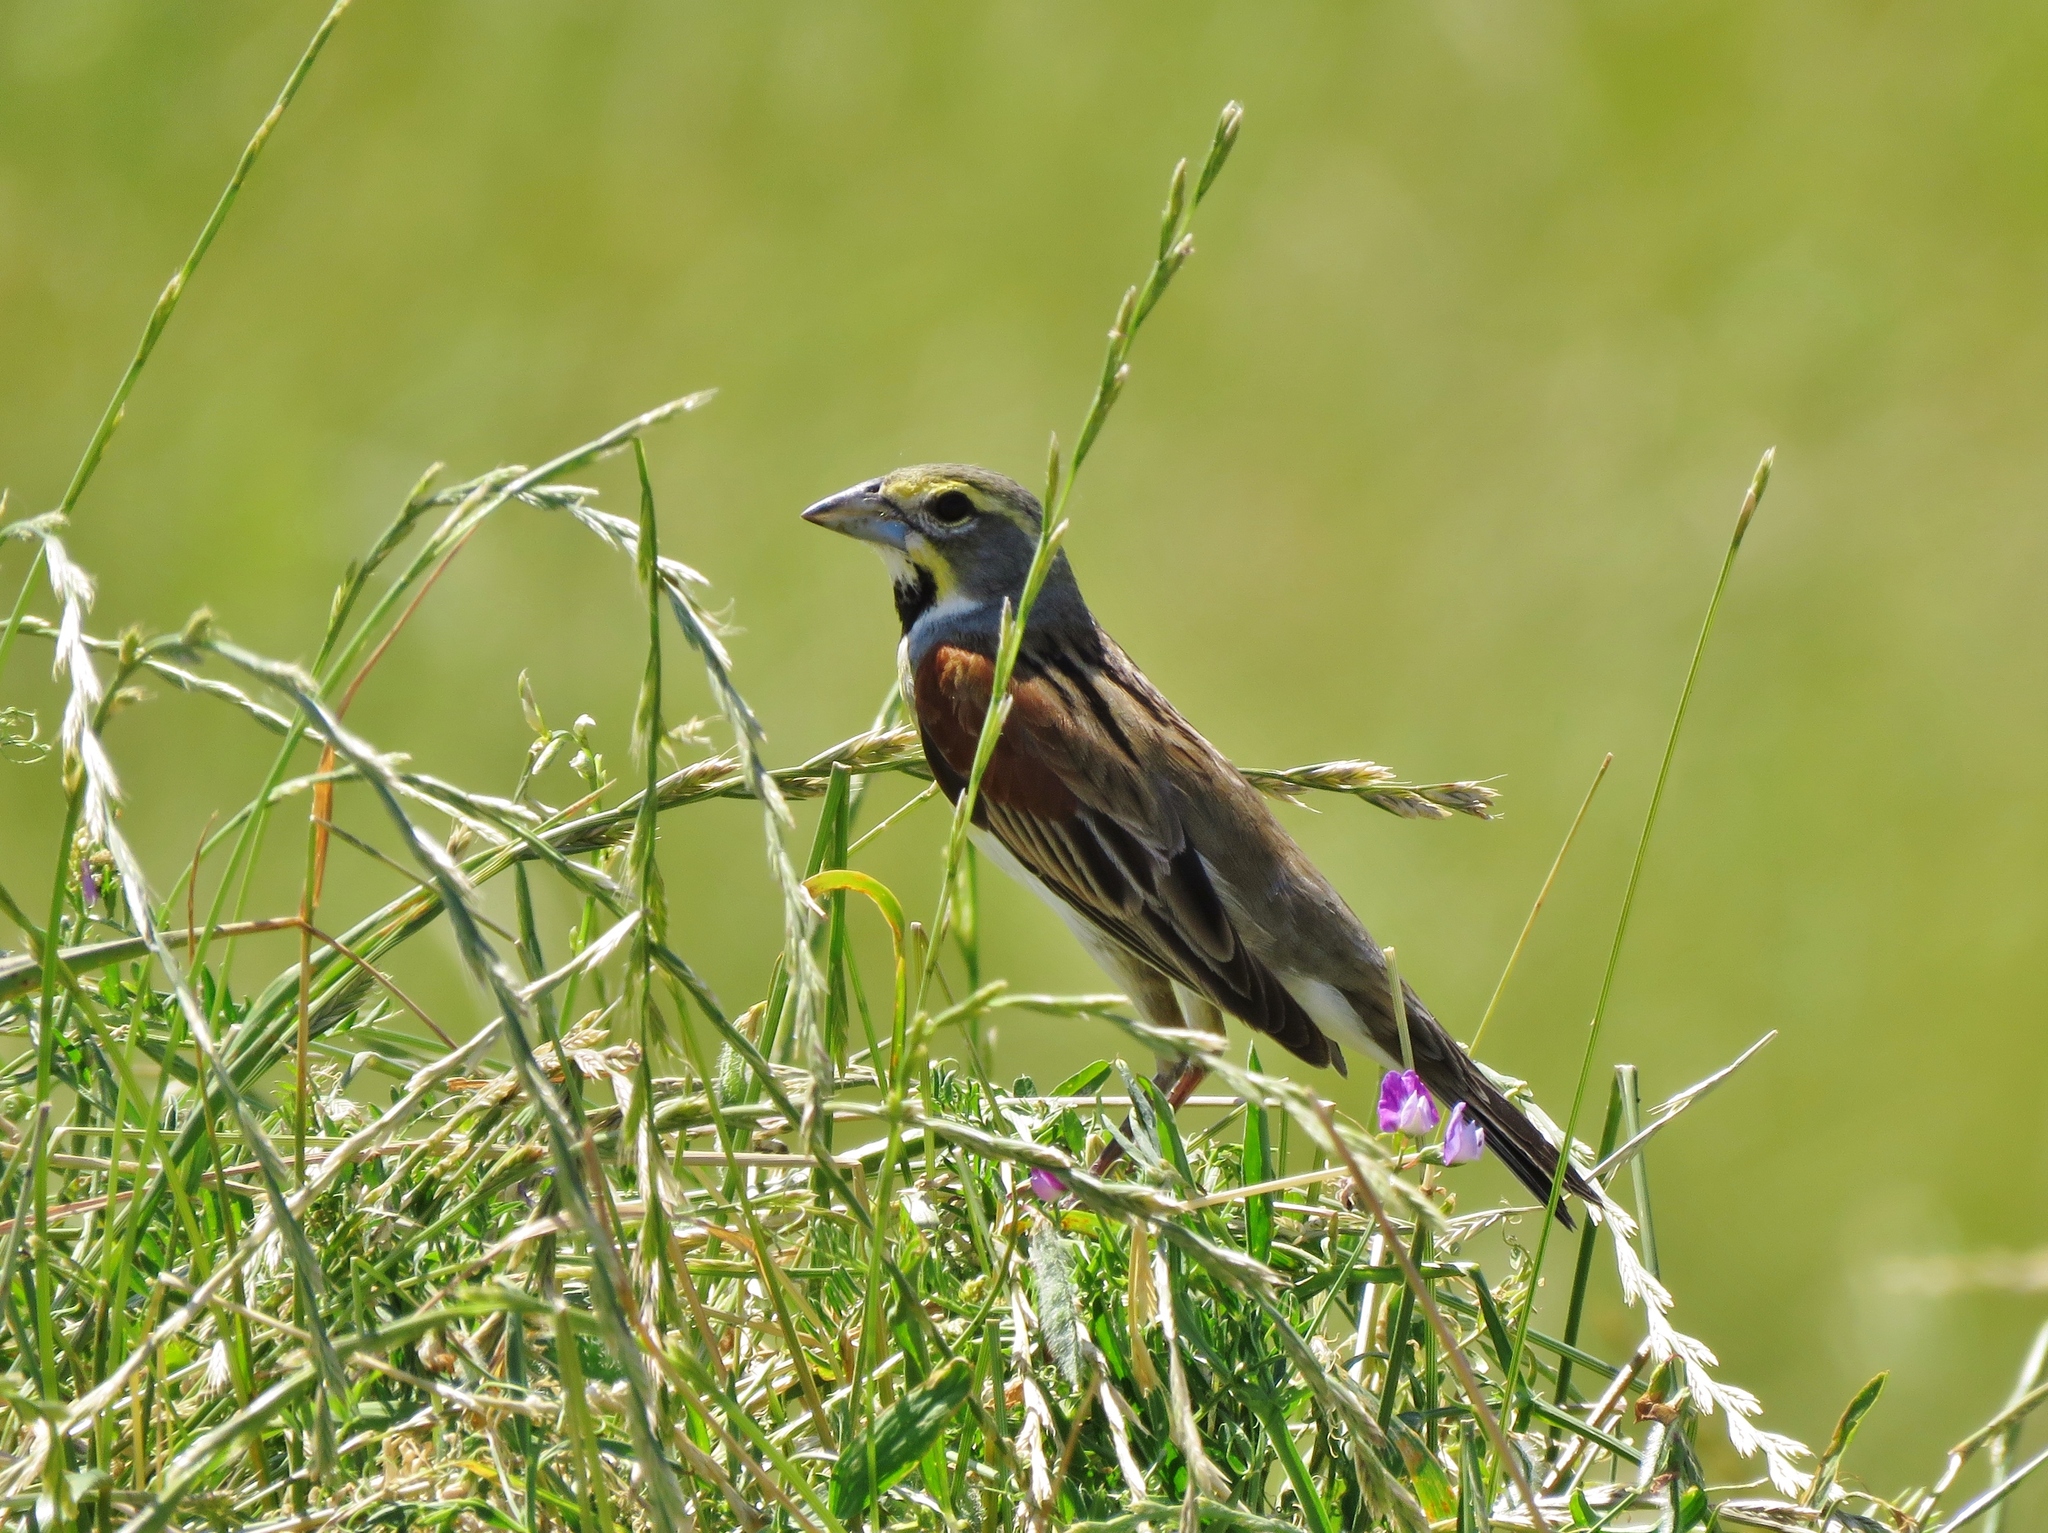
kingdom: Animalia
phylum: Chordata
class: Aves
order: Passeriformes
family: Cardinalidae
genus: Spiza
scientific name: Spiza americana
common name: Dickcissel
